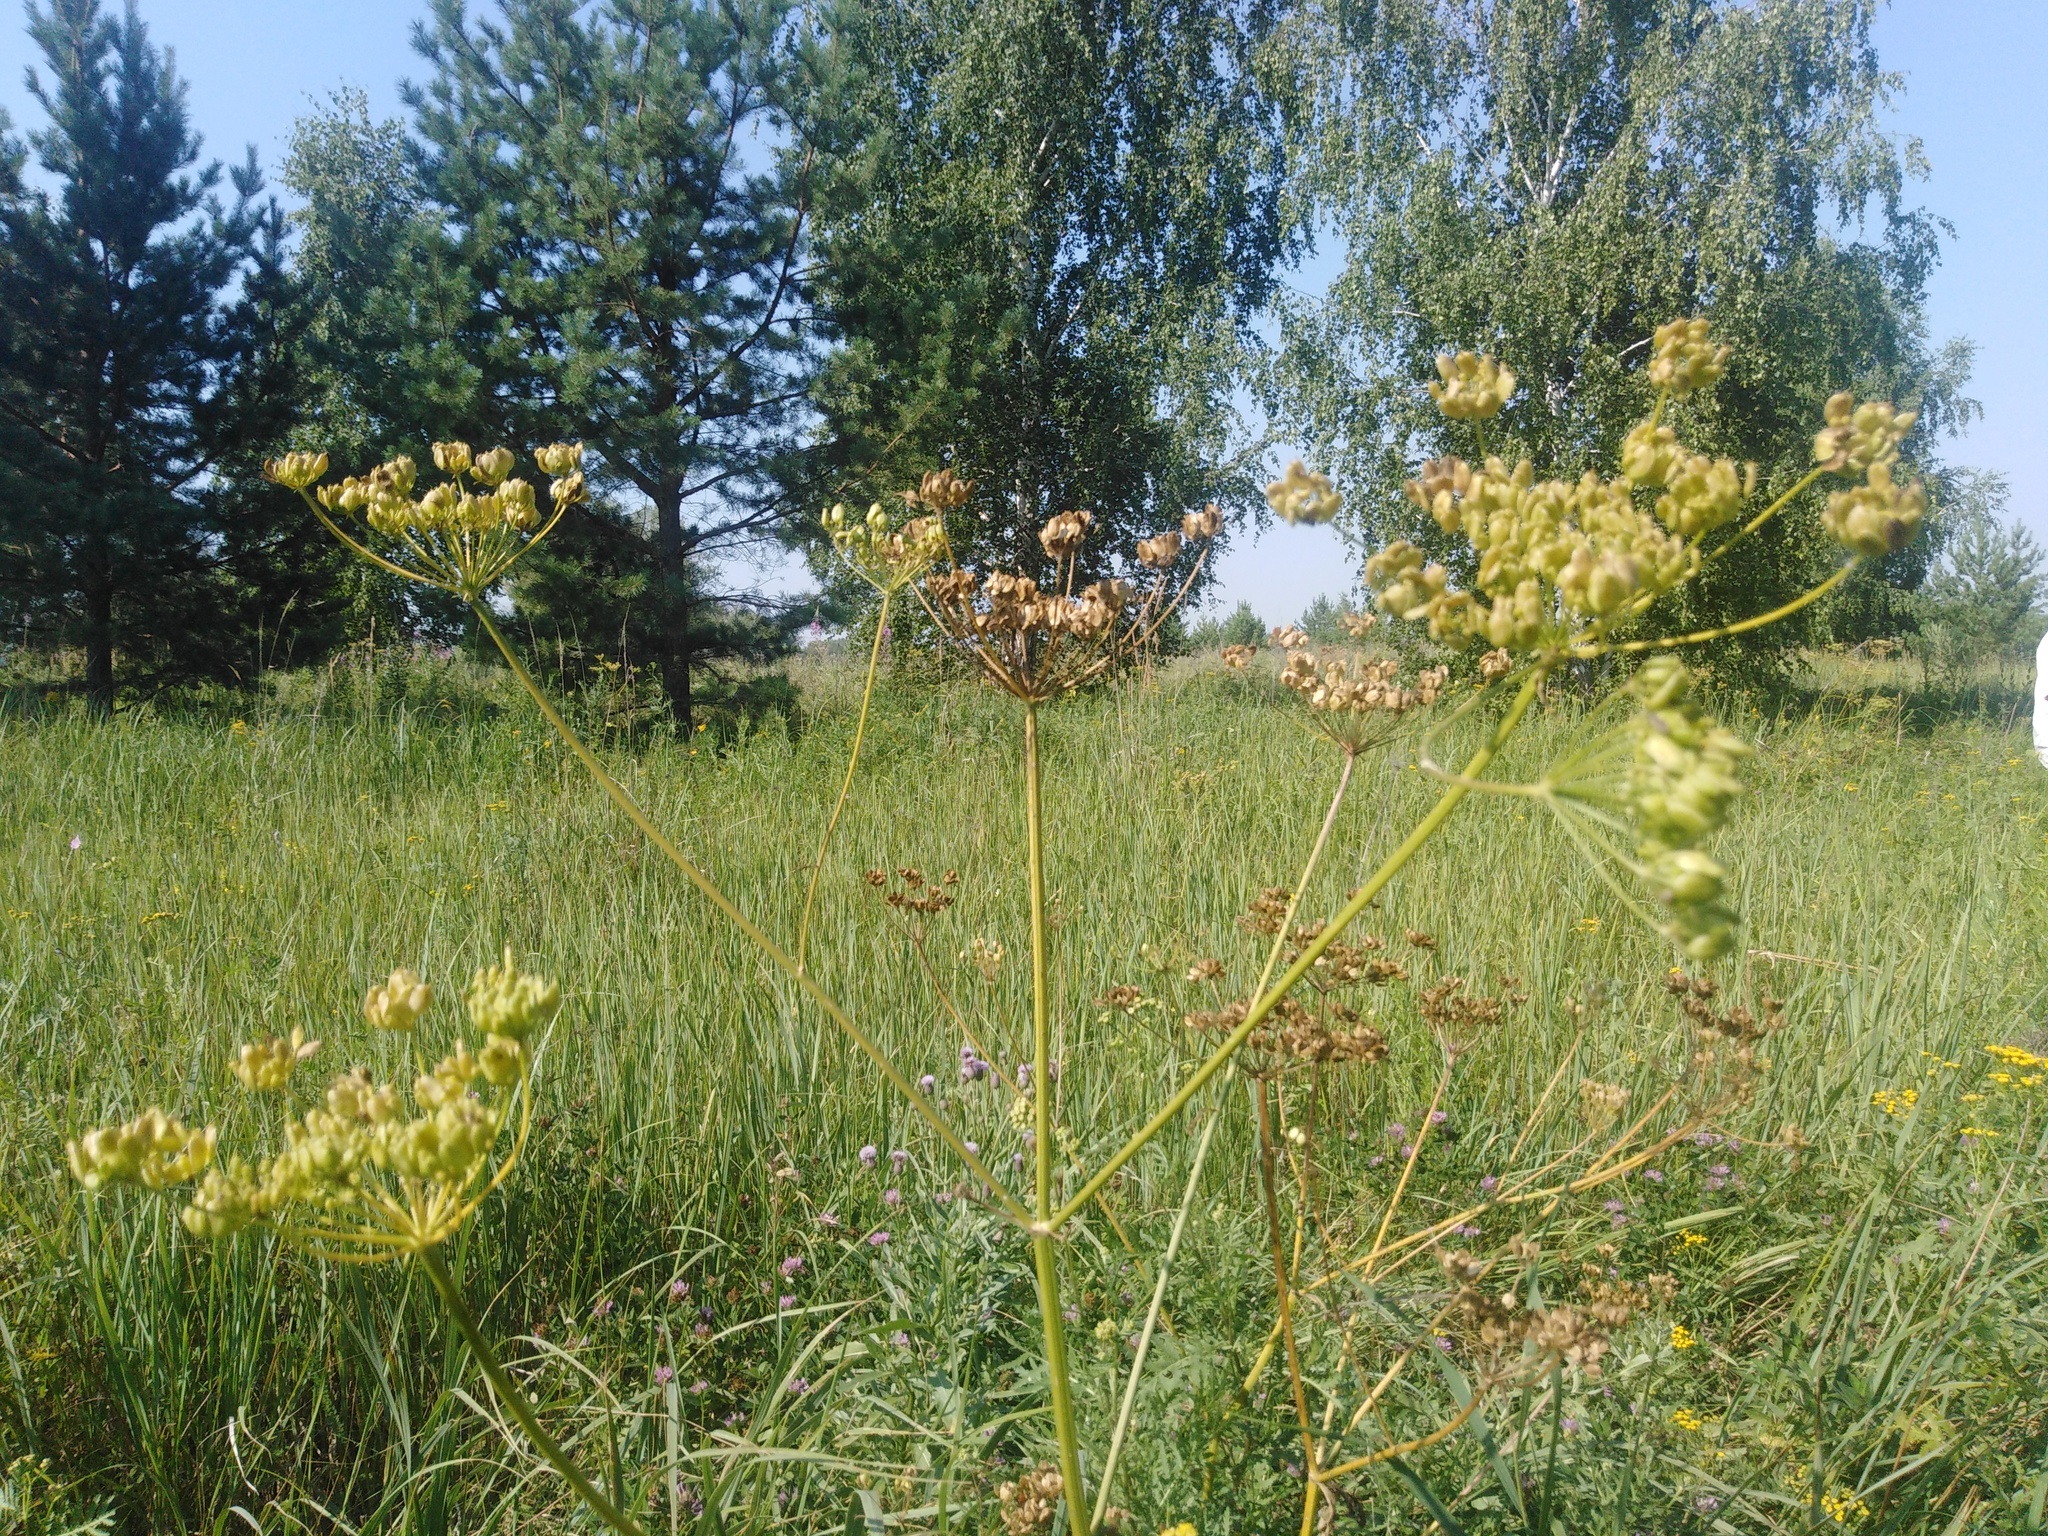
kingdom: Plantae
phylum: Tracheophyta
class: Magnoliopsida
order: Apiales
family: Apiaceae
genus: Heracleum
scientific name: Heracleum sphondylium
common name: Hogweed
